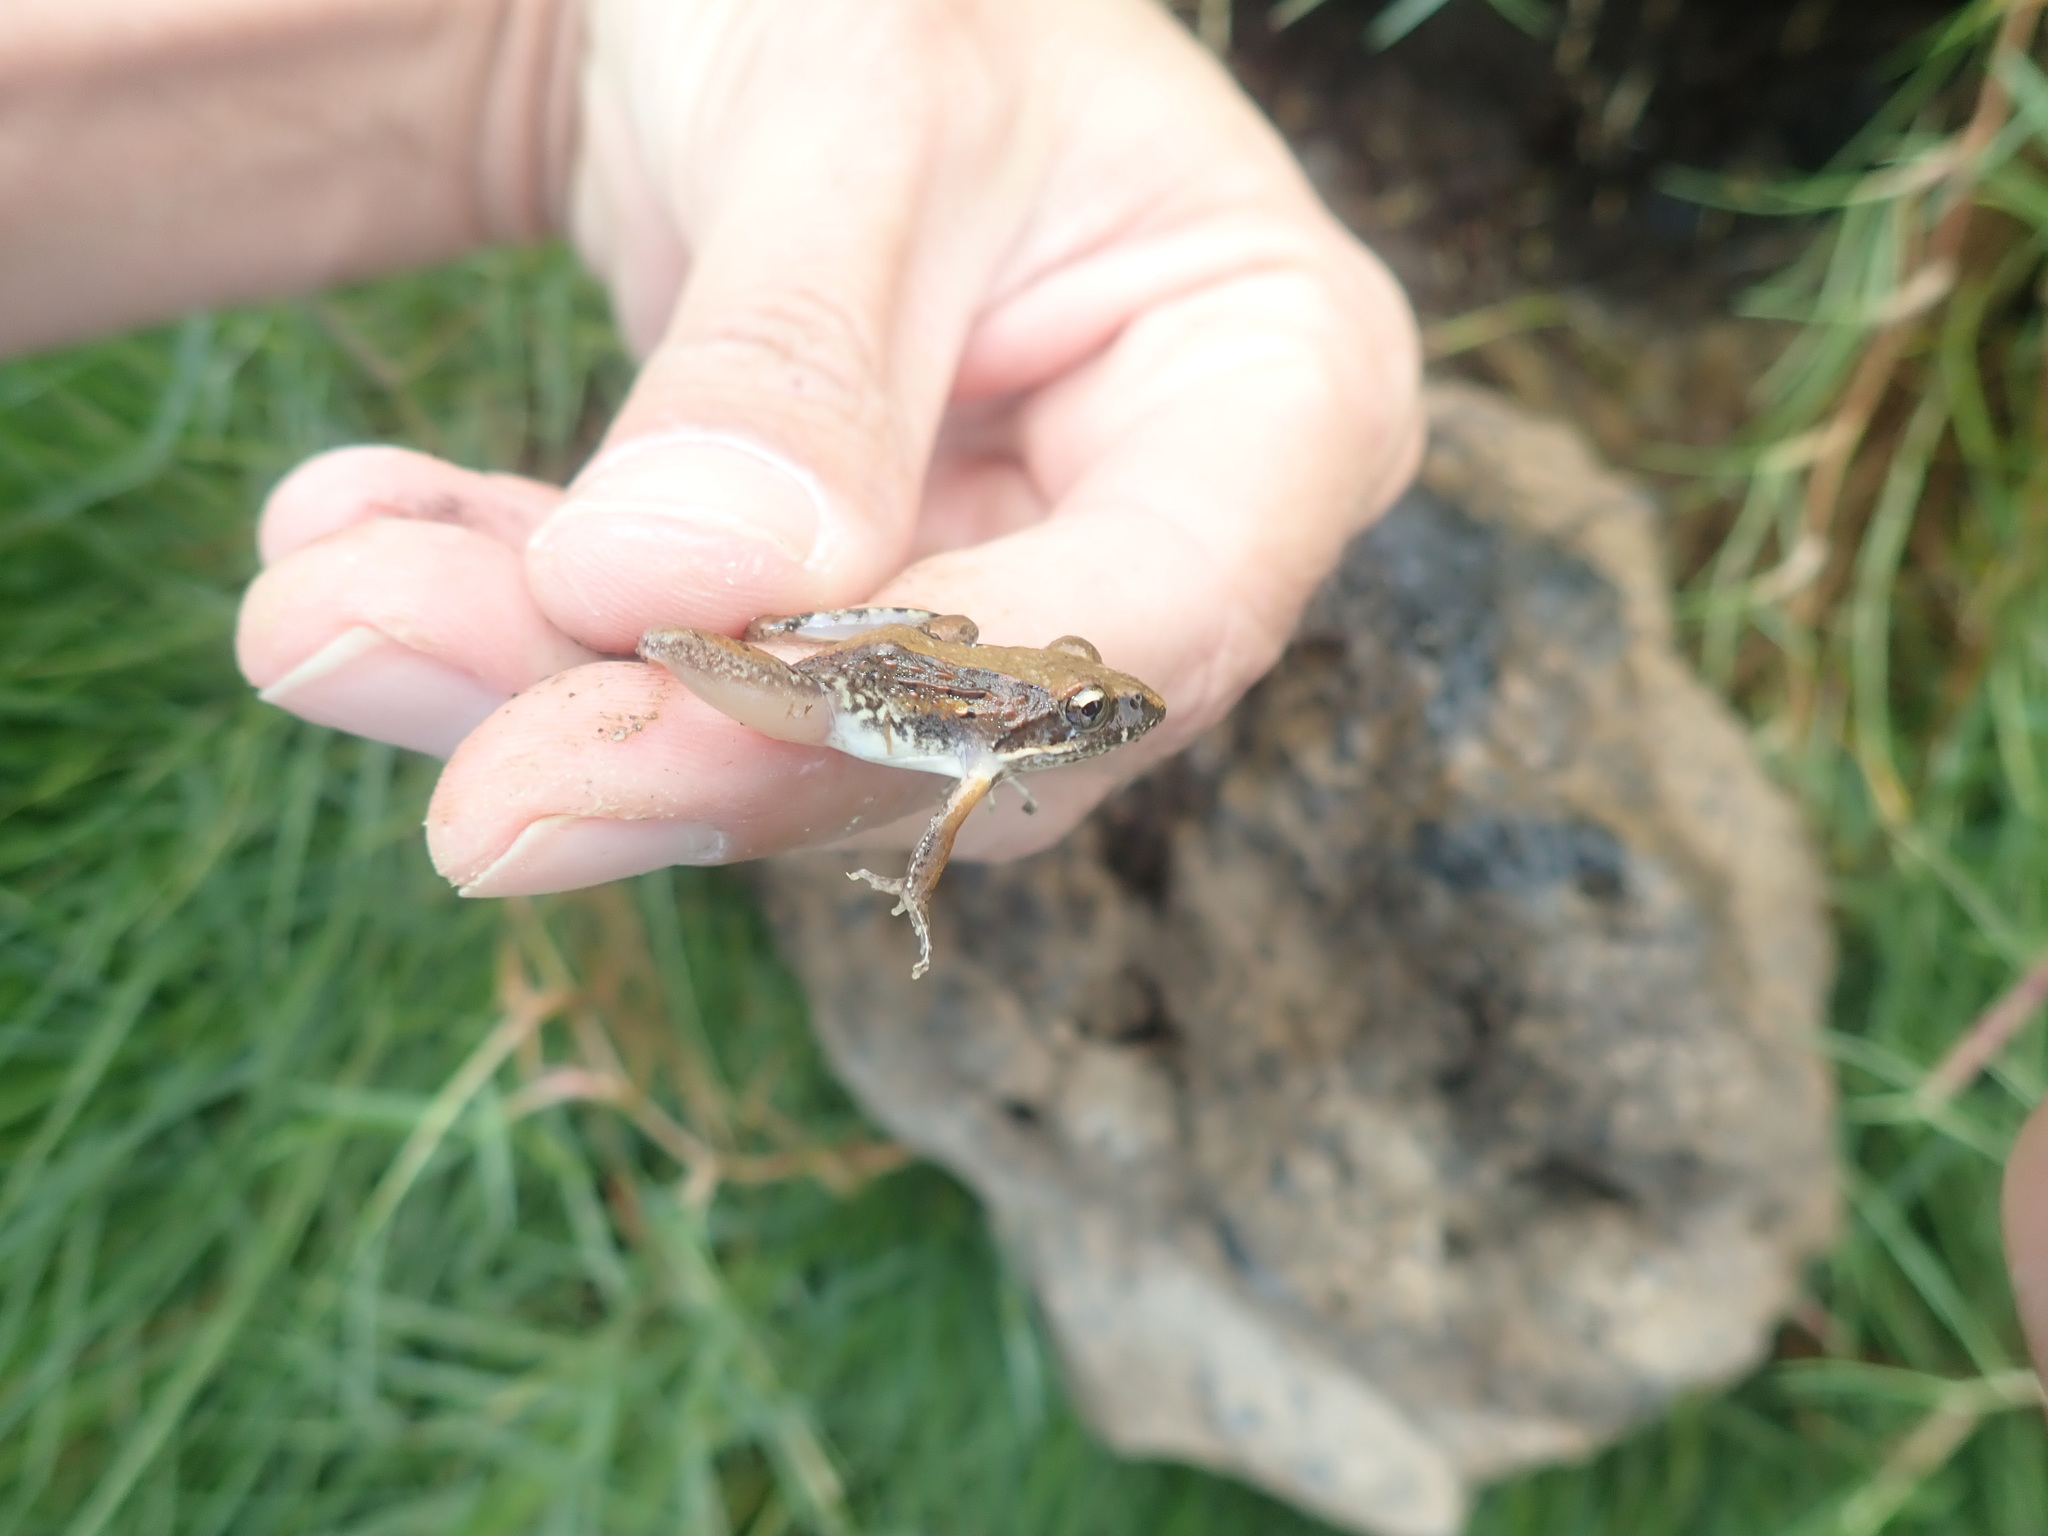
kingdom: Animalia
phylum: Chordata
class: Amphibia
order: Anura
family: Pyxicephalidae
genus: Strongylopus
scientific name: Strongylopus grayii
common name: Gray's stream frog
